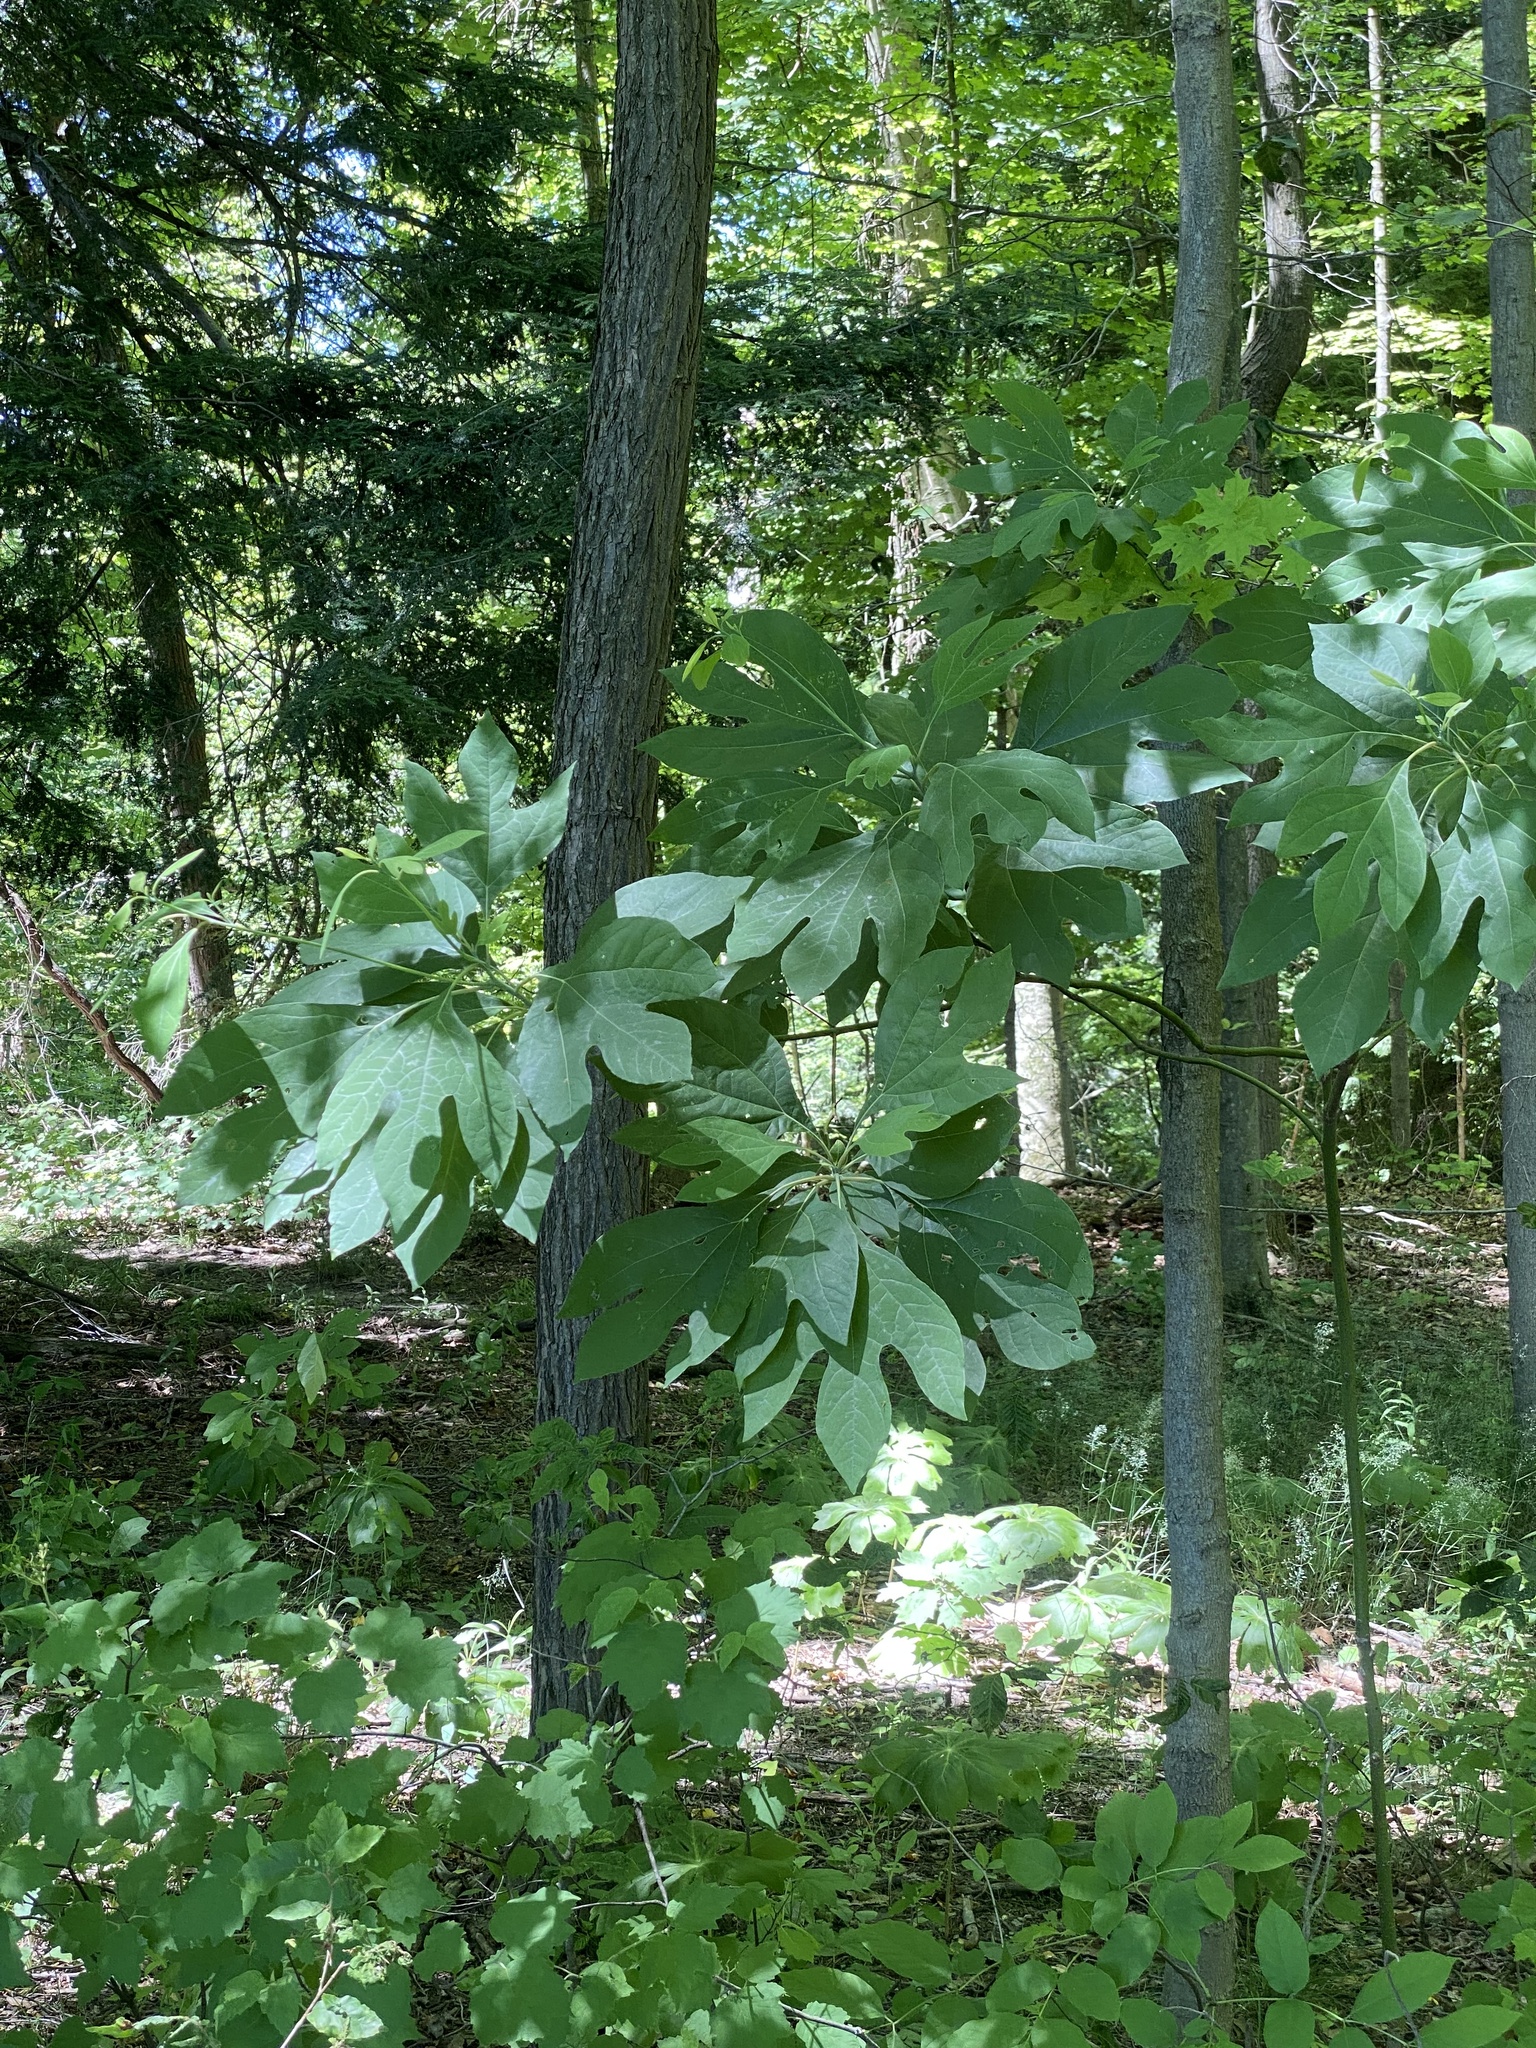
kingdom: Plantae
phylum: Tracheophyta
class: Magnoliopsida
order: Laurales
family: Lauraceae
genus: Sassafras
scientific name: Sassafras albidum
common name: Sassafras
